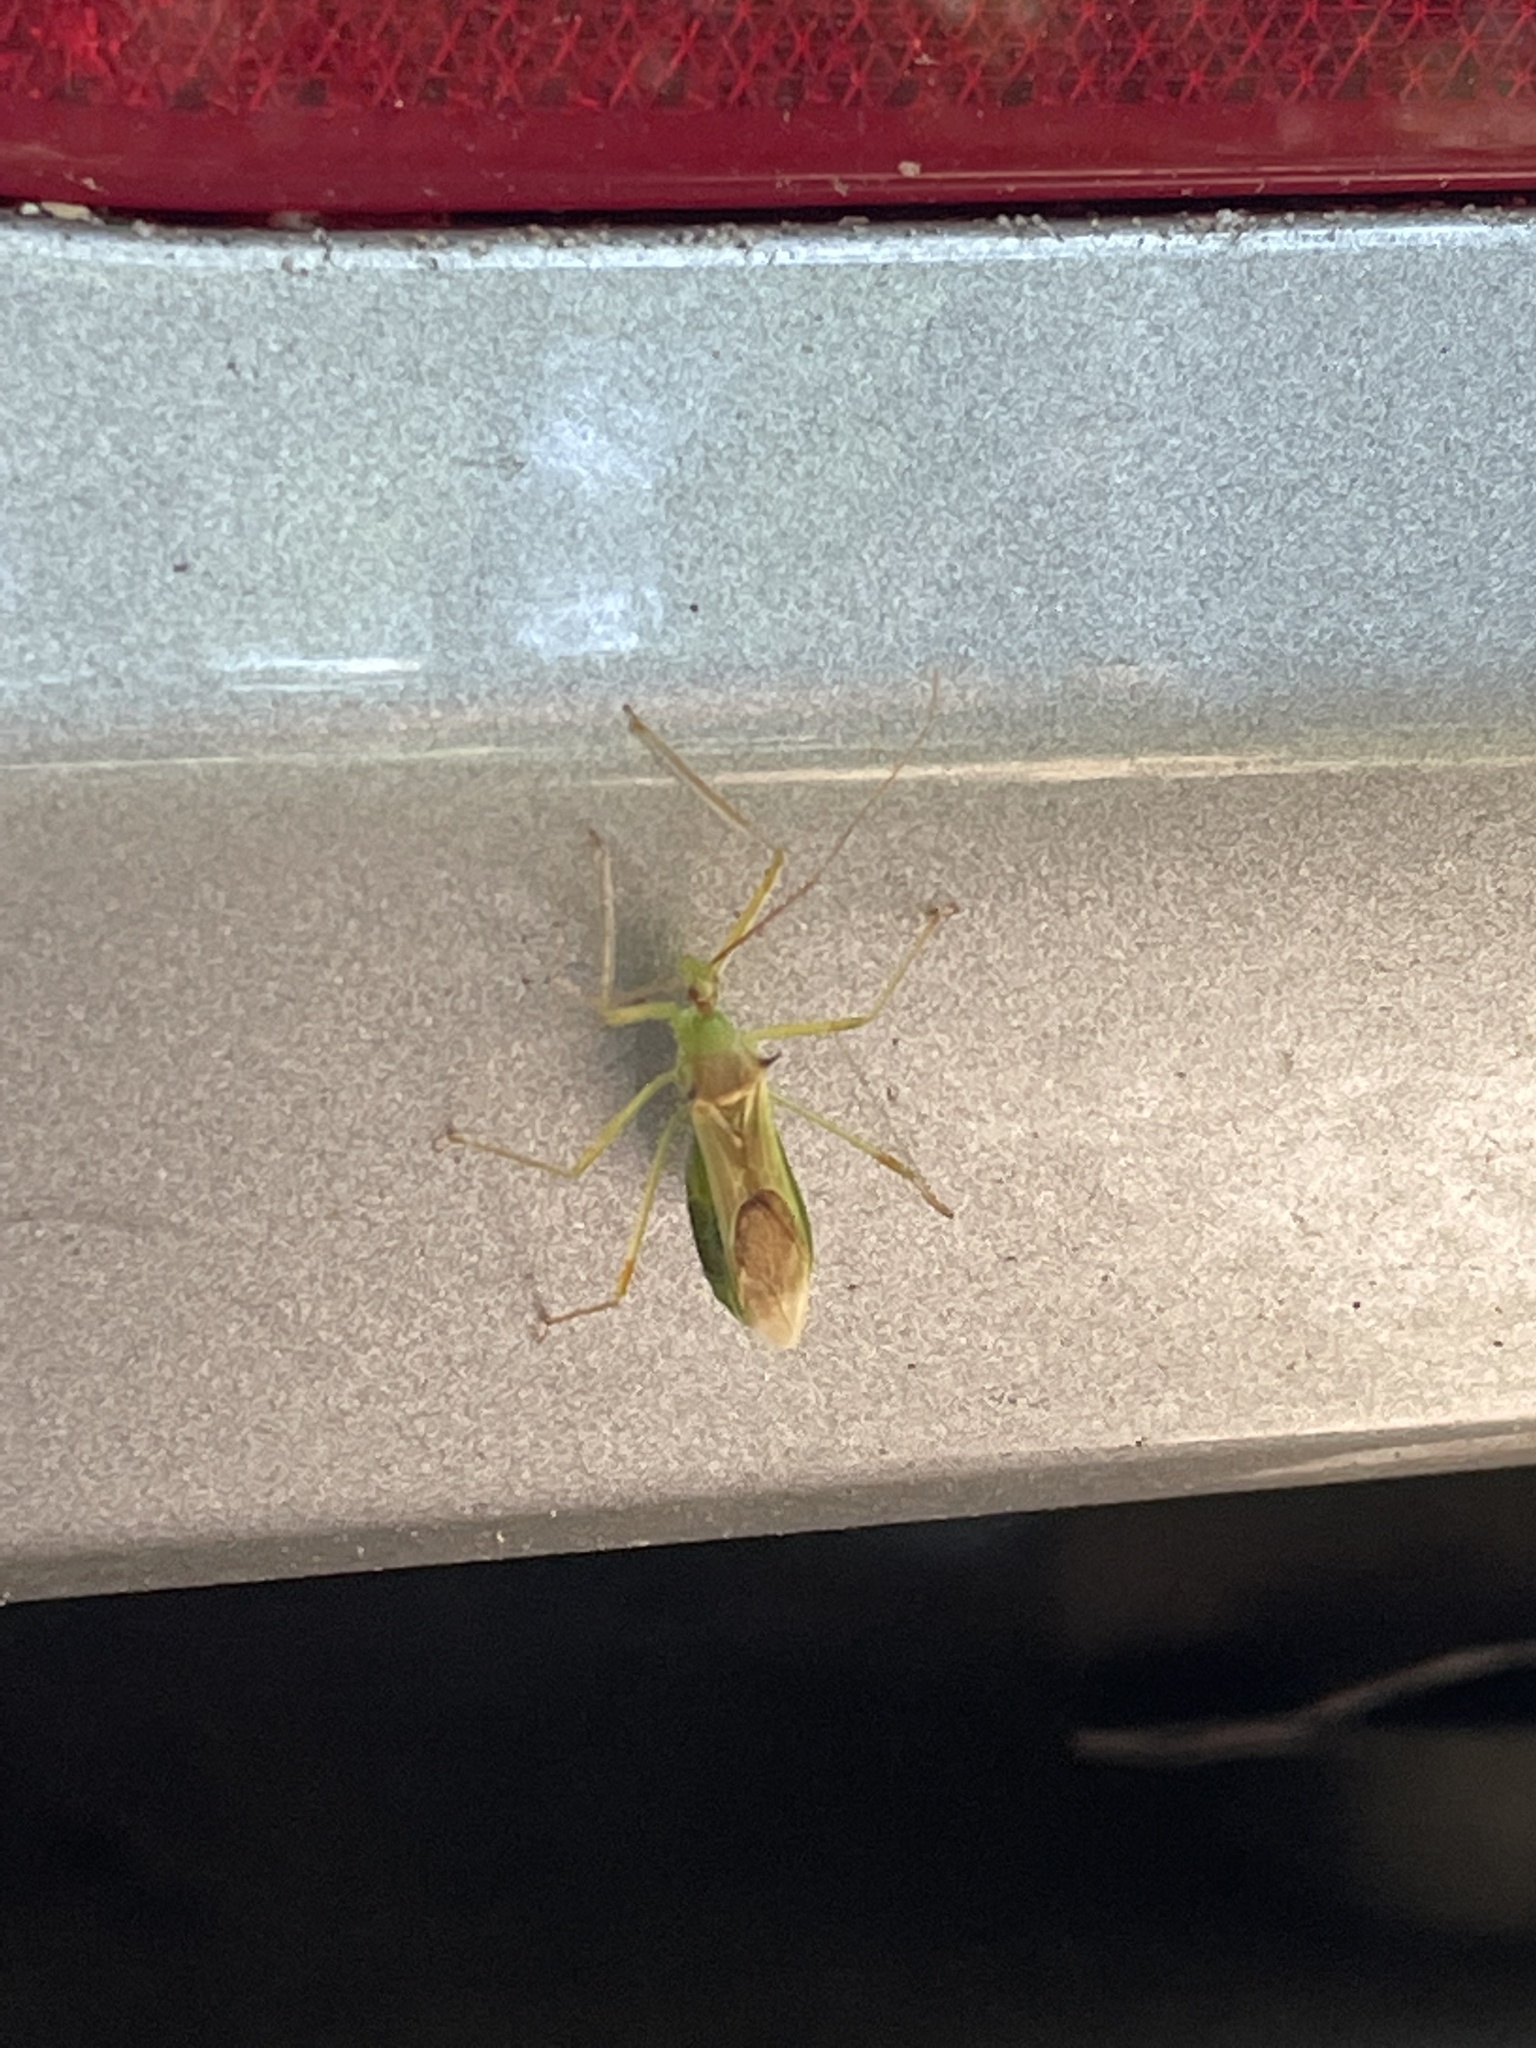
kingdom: Animalia
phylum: Arthropoda
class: Insecta
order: Hemiptera
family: Reduviidae
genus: Zelus
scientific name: Zelus luridus
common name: Pale green assassin bug
